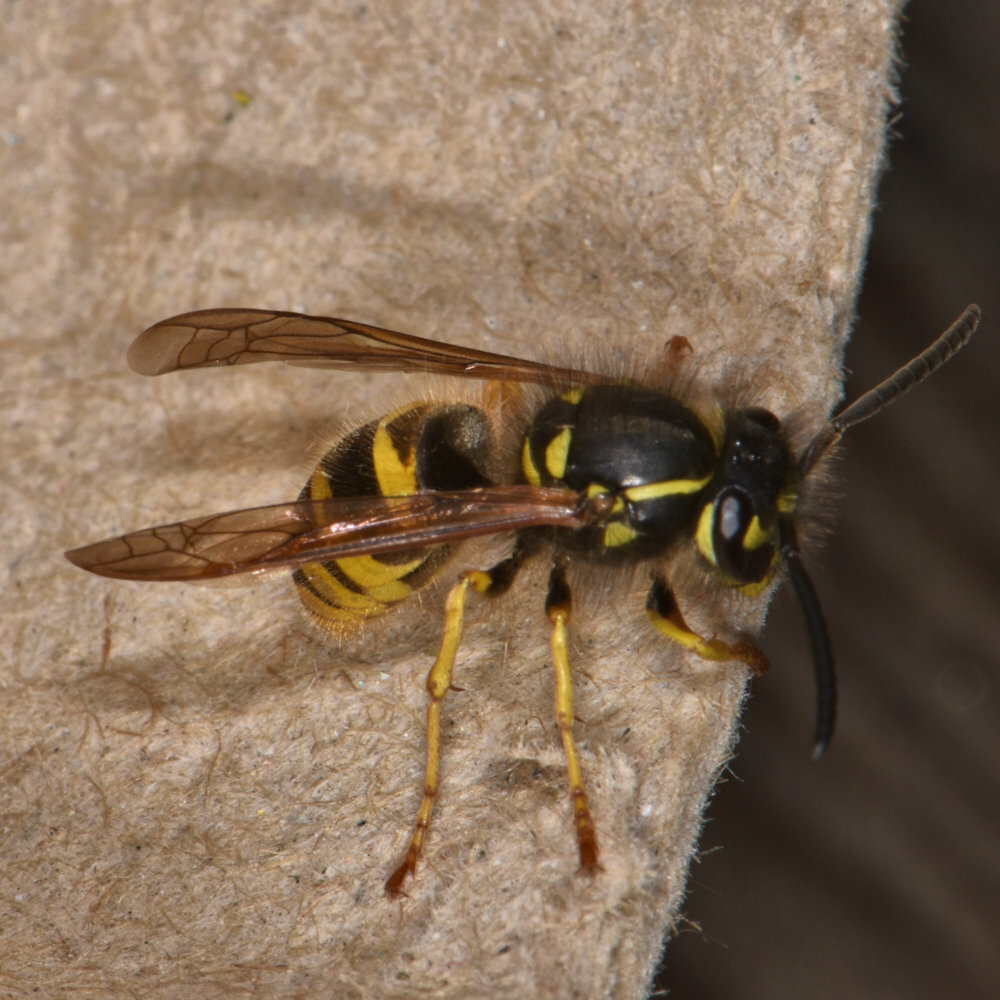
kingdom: Animalia
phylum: Arthropoda
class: Insecta
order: Hymenoptera
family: Vespidae
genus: Vespula
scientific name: Vespula alascensis
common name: Alaska yellowjacket
